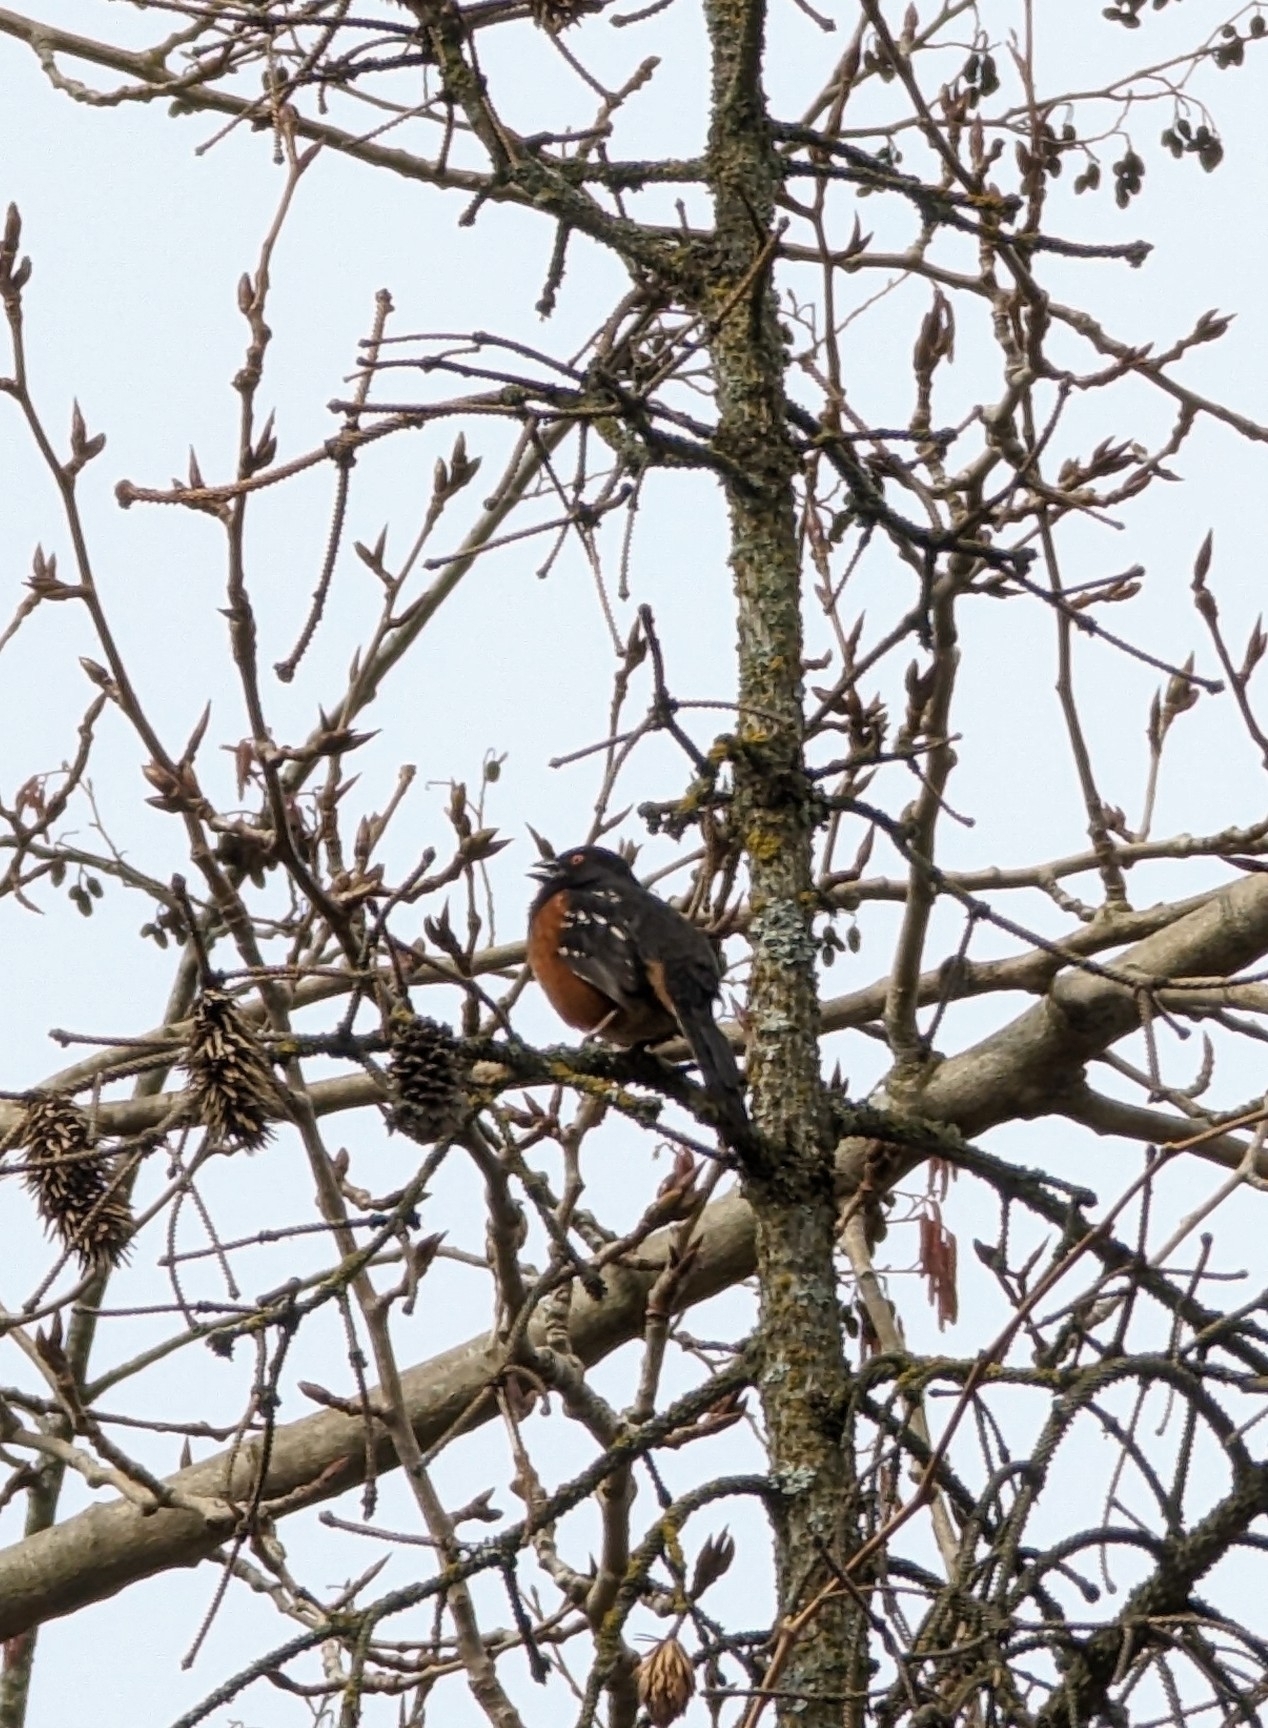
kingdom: Animalia
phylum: Chordata
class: Aves
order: Passeriformes
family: Passerellidae
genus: Pipilo
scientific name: Pipilo maculatus
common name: Spotted towhee
